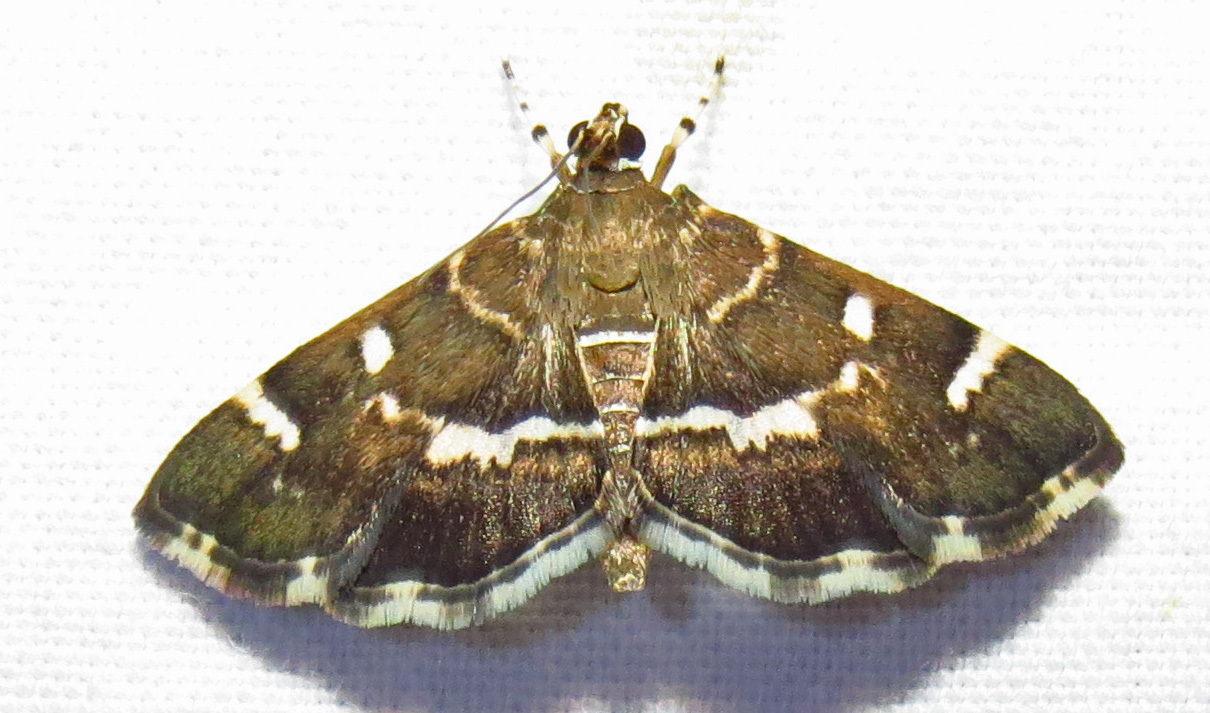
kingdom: Animalia
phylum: Arthropoda
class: Insecta
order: Lepidoptera
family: Crambidae
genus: Hymenia
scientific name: Hymenia perspectalis
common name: Spotted beet webworm
